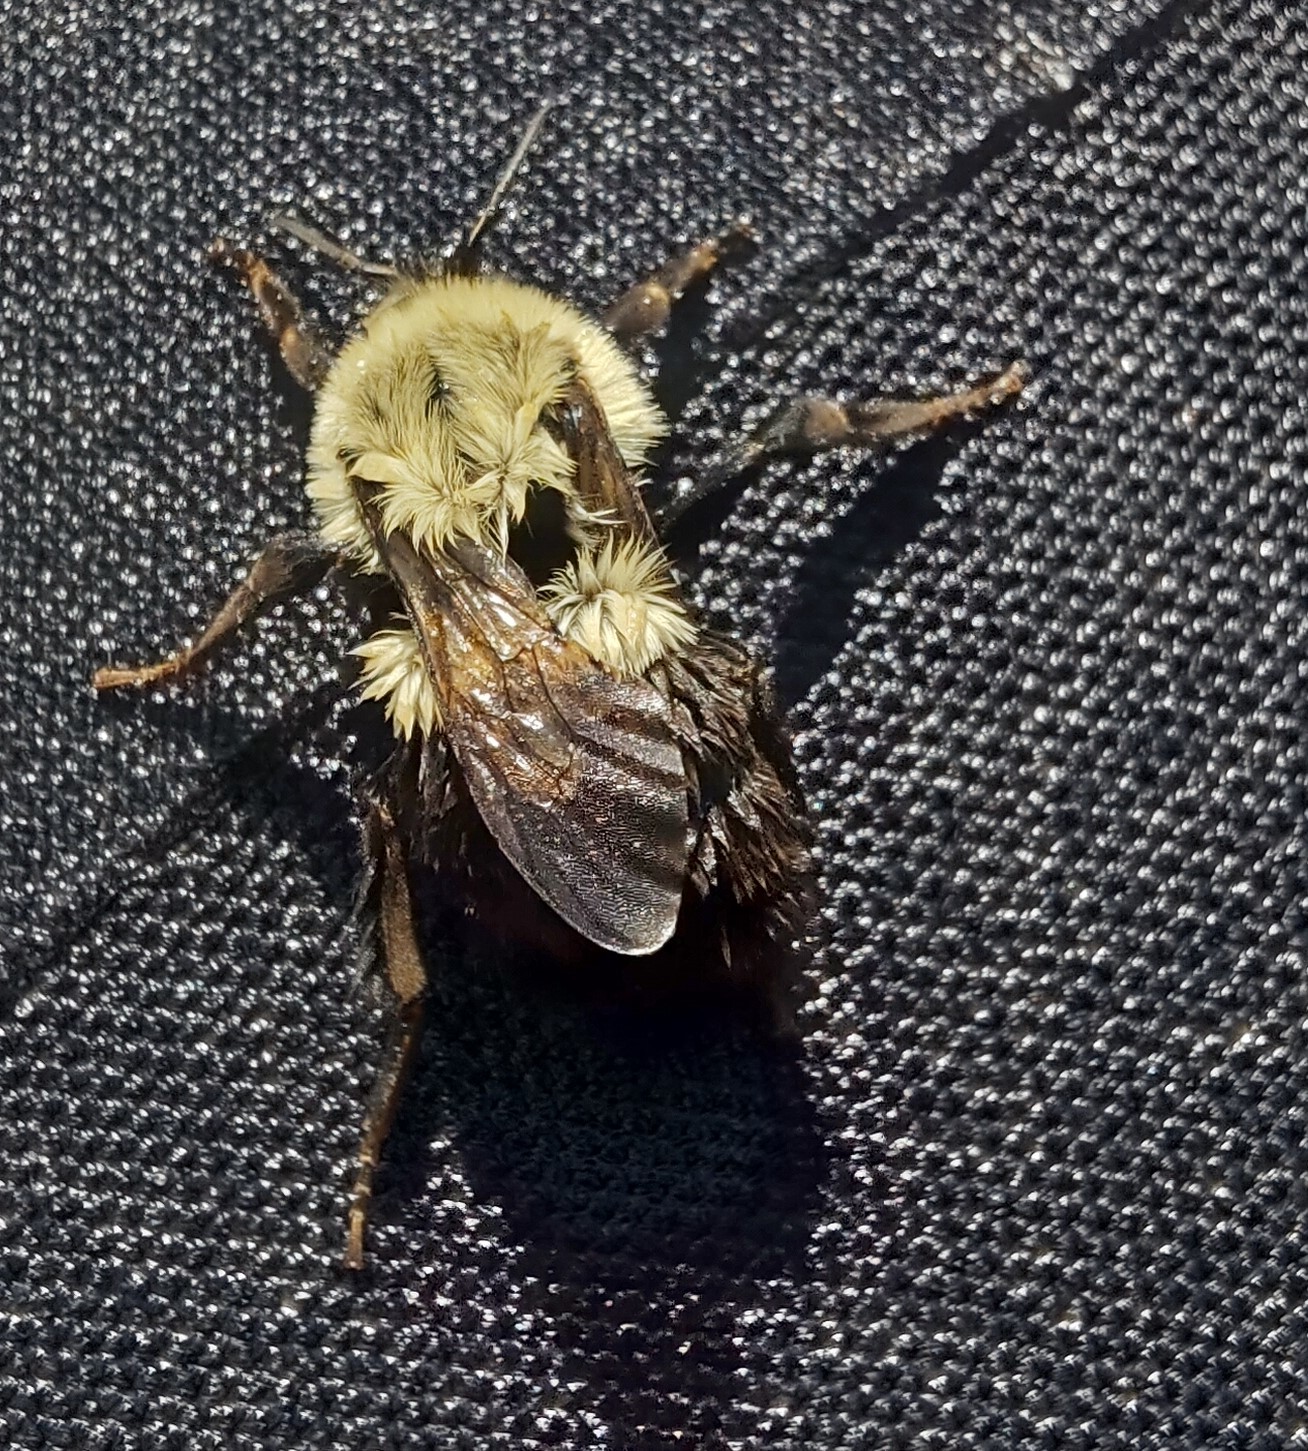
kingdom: Animalia
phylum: Arthropoda
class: Insecta
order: Hymenoptera
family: Apidae
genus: Bombus
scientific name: Bombus impatiens
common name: Common eastern bumble bee
